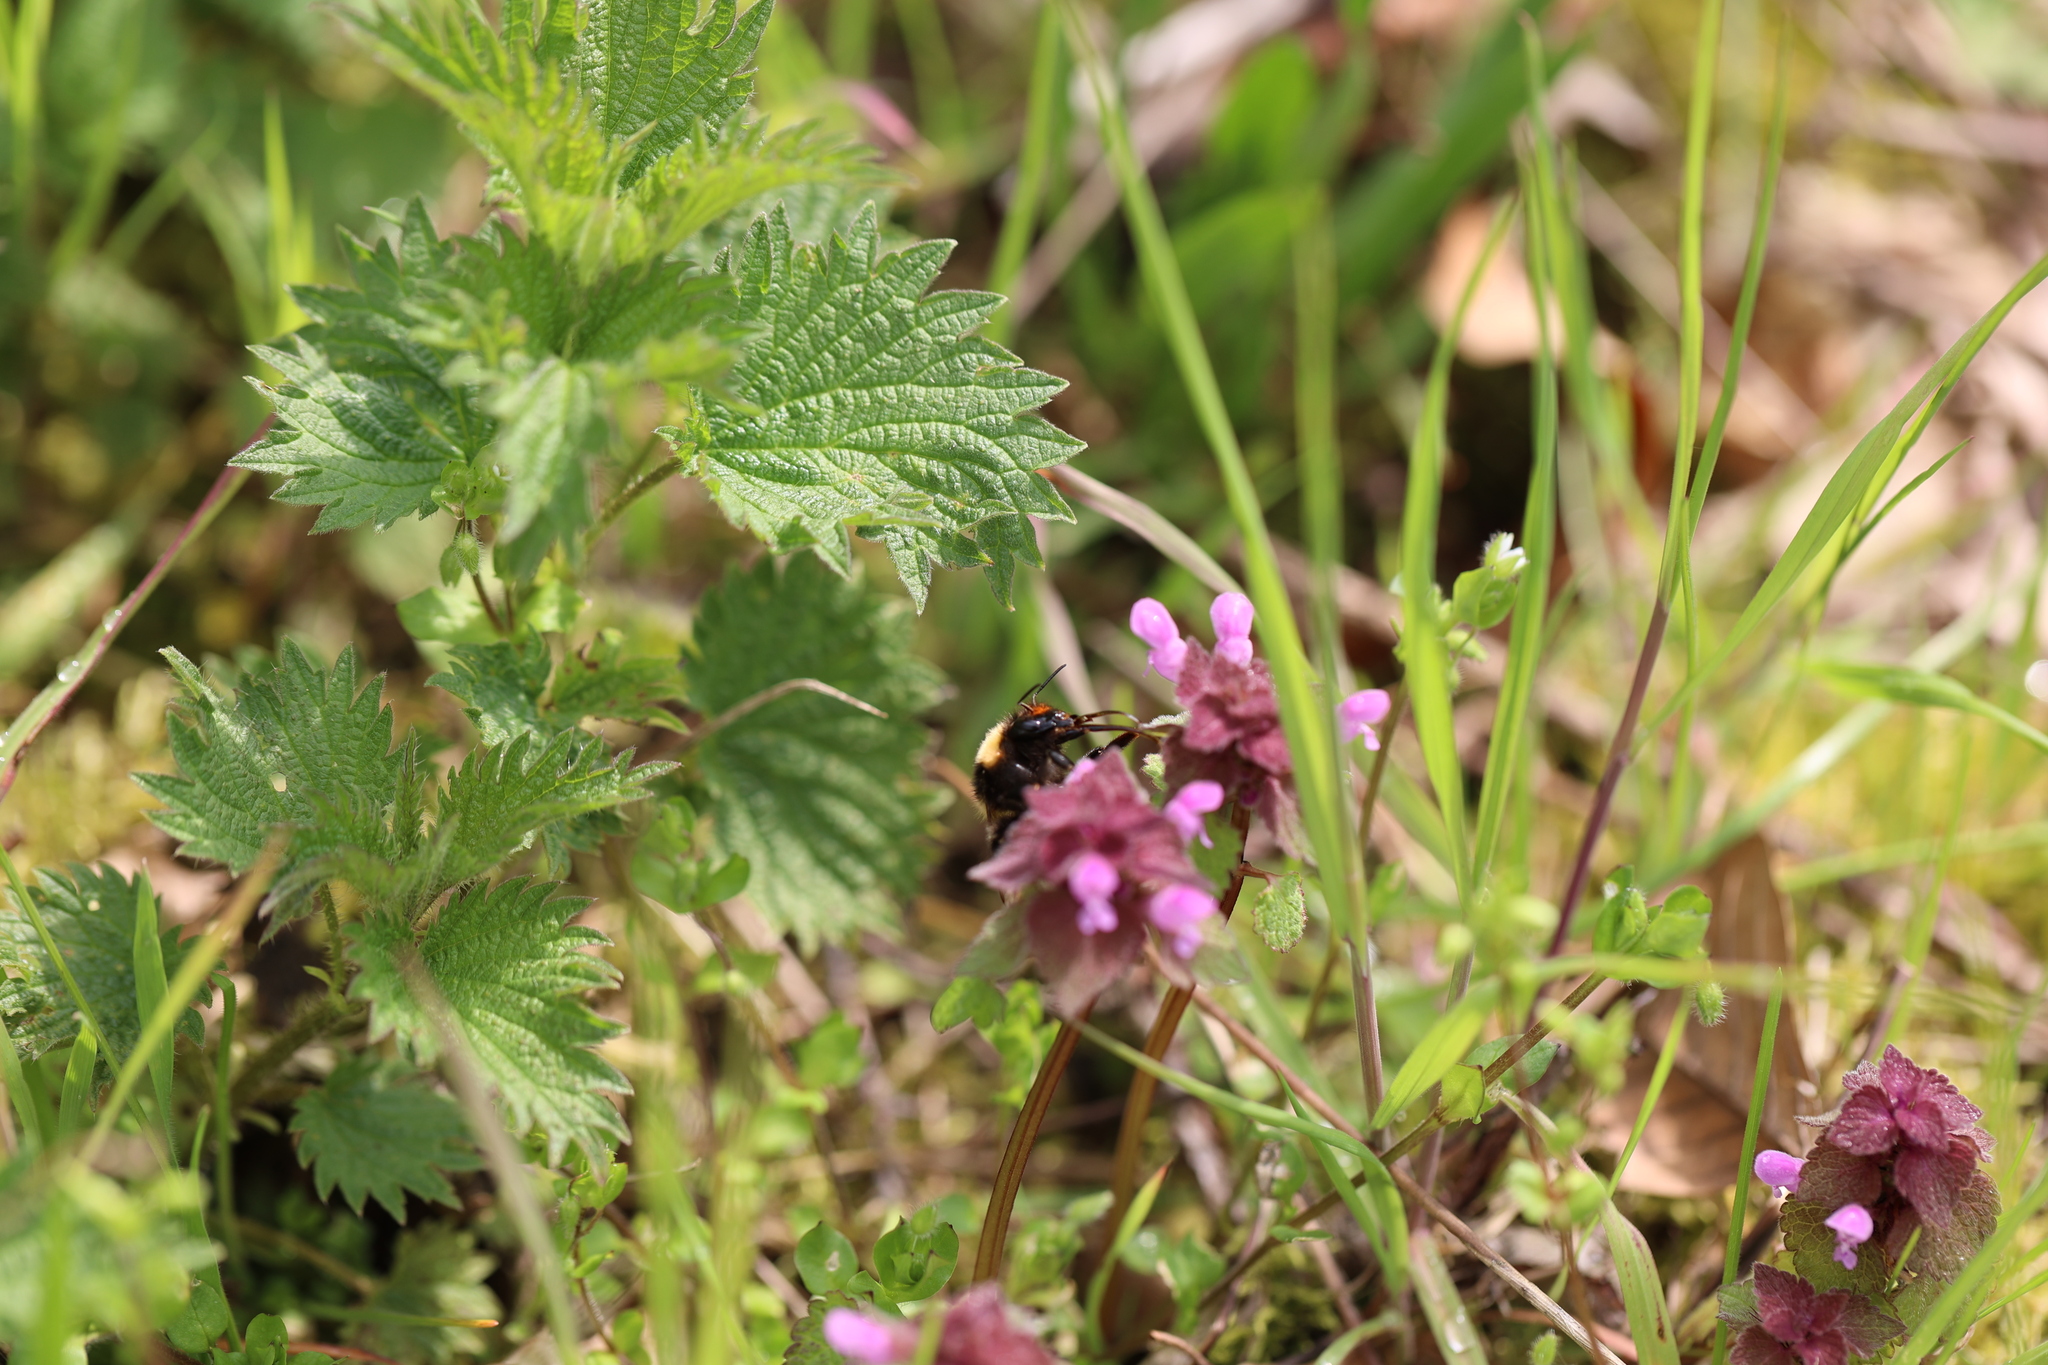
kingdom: Animalia
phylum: Arthropoda
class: Insecta
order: Hymenoptera
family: Apidae
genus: Bombus
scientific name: Bombus hortorum
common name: Garden bumblebee
